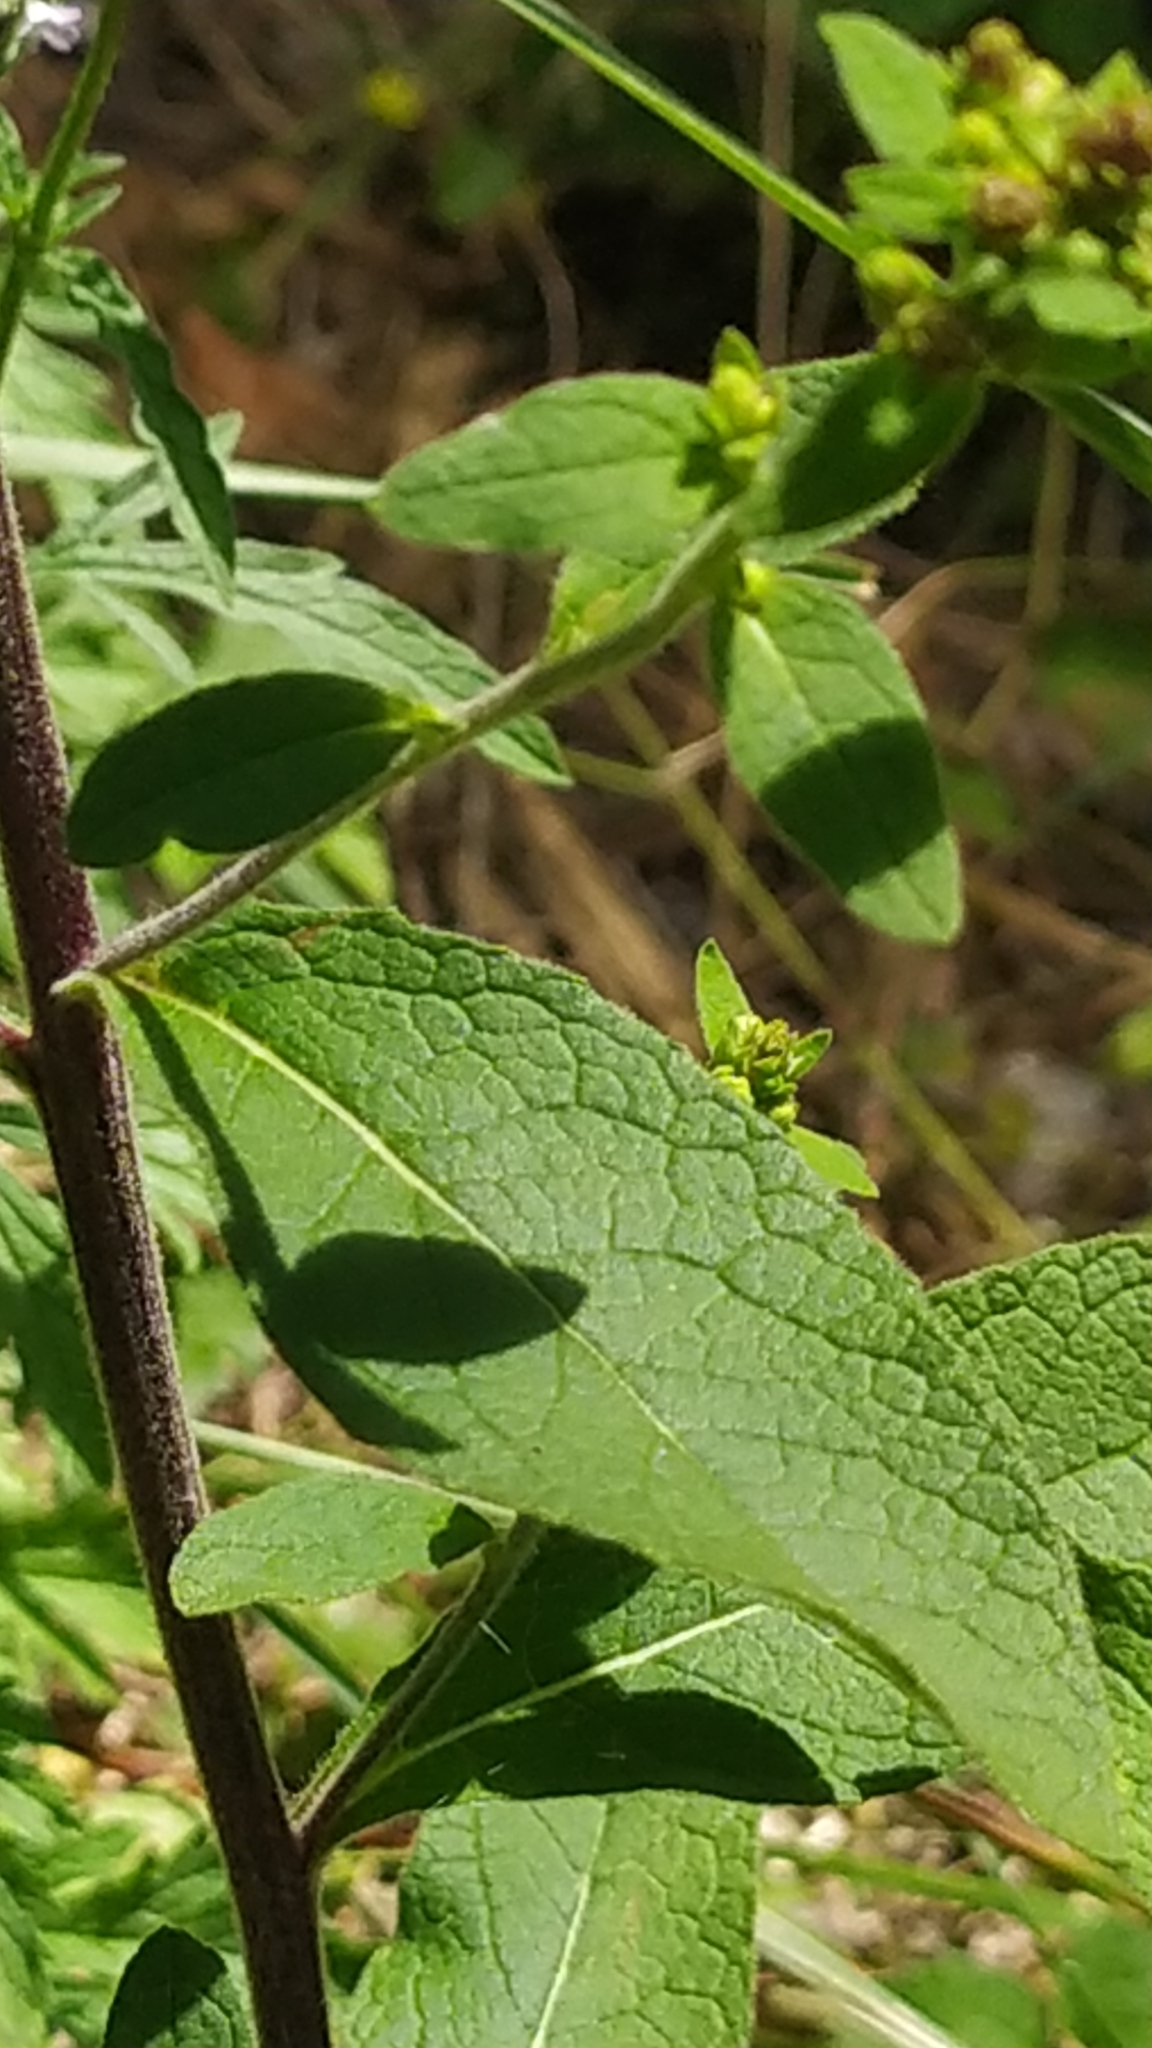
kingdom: Plantae
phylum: Tracheophyta
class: Magnoliopsida
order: Asterales
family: Asteraceae
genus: Pentanema
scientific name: Pentanema squarrosum
